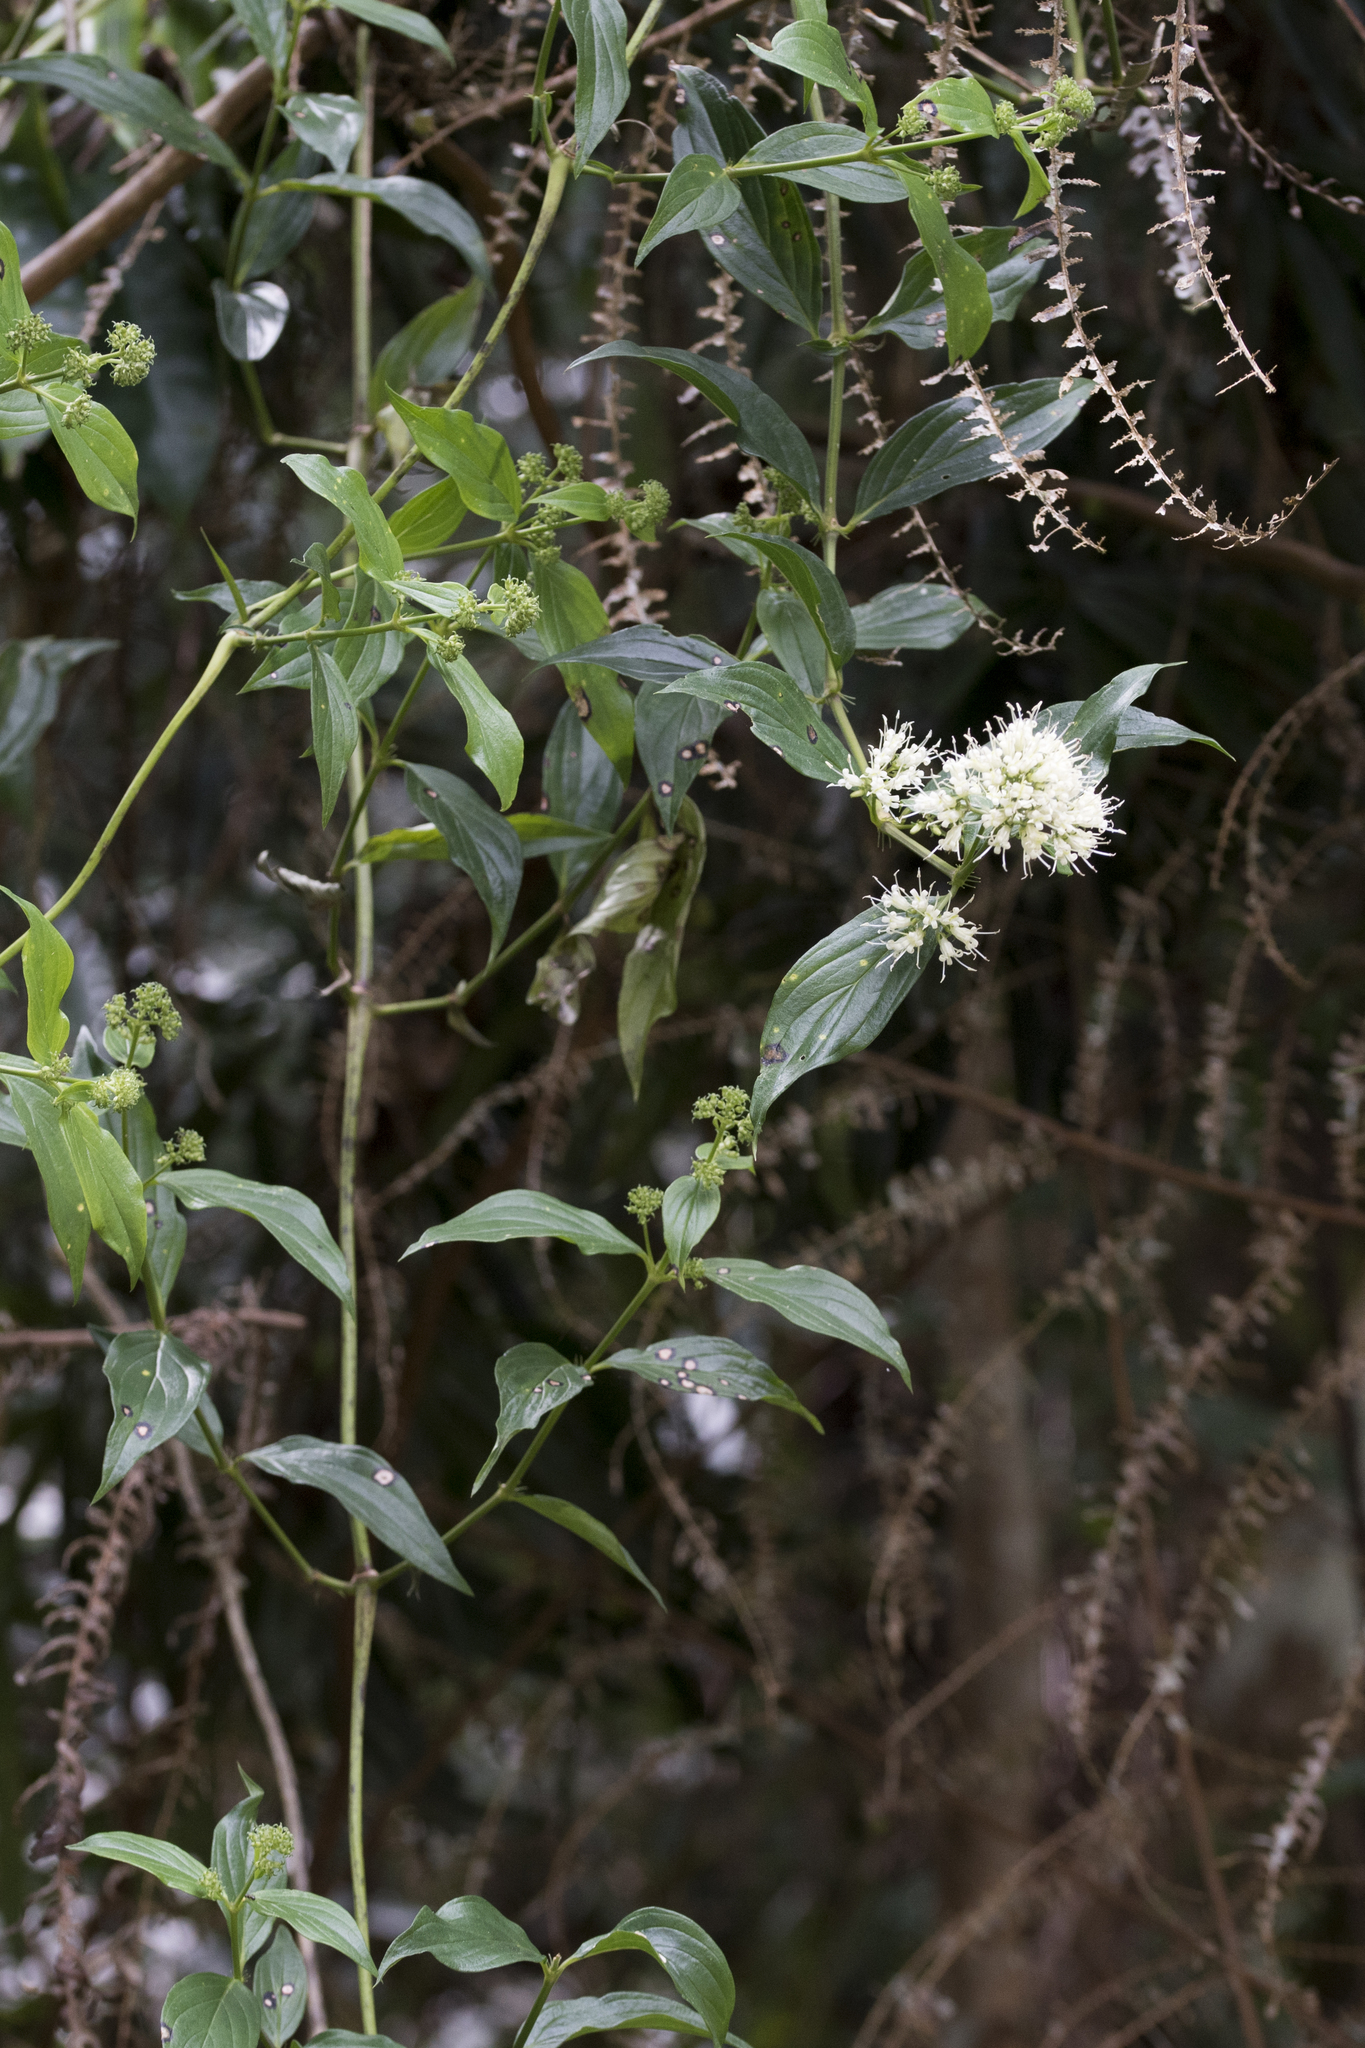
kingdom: Plantae
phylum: Tracheophyta
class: Magnoliopsida
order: Gentianales
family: Rubiaceae
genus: Dimetia
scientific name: Dimetia hedyotidea
